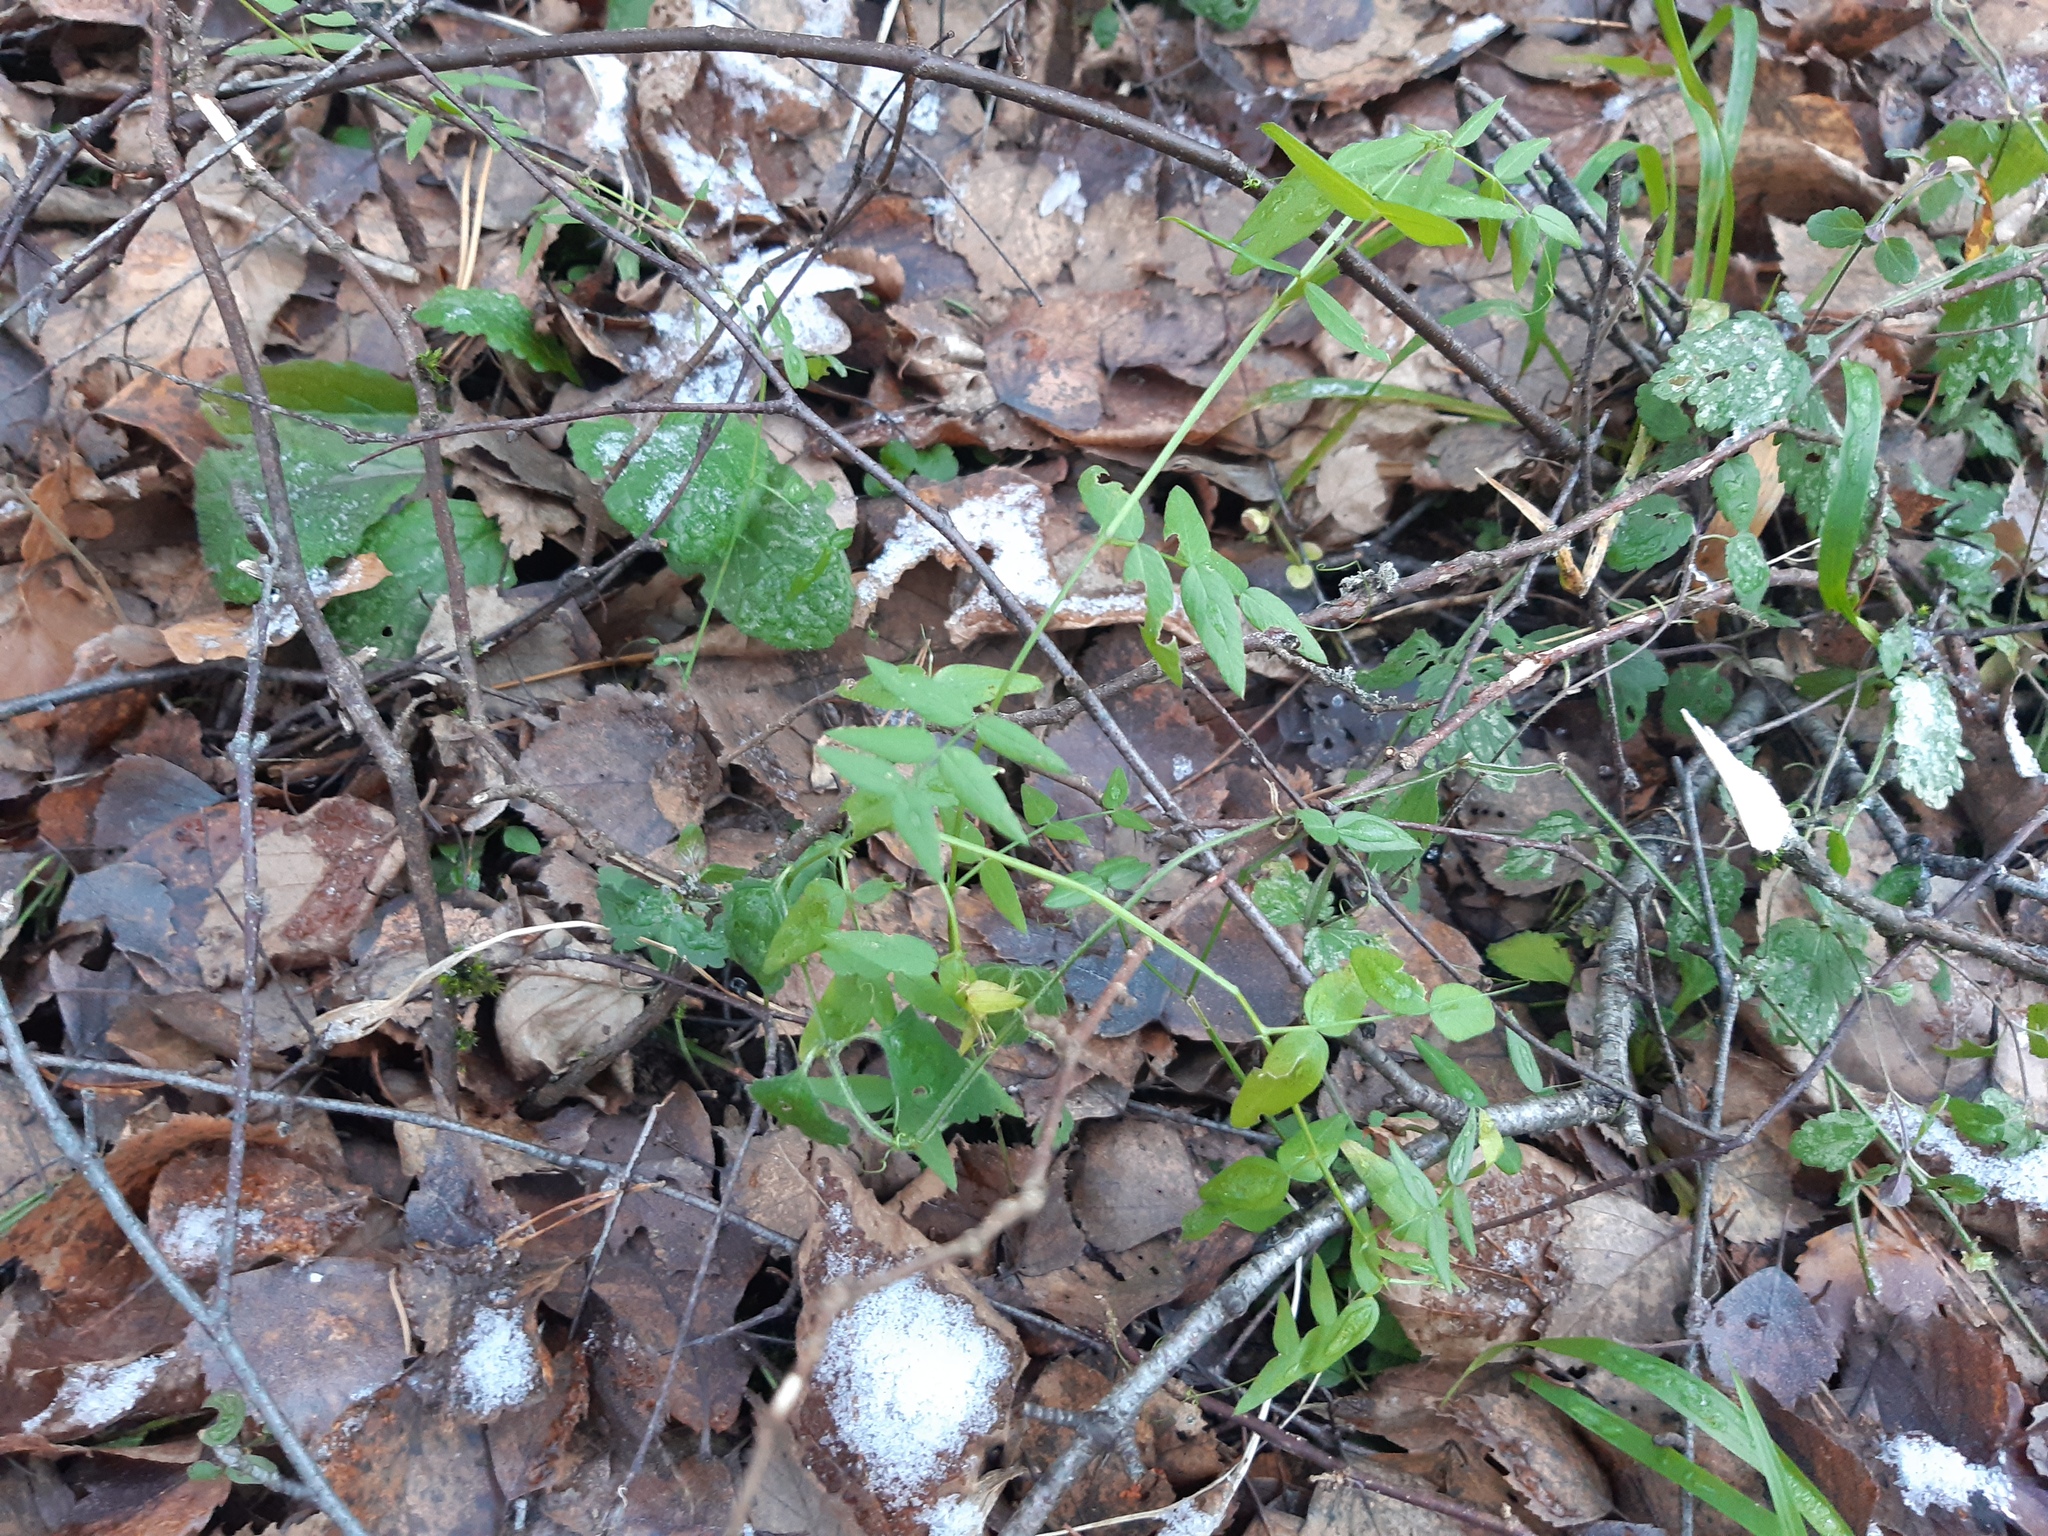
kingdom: Plantae
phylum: Tracheophyta
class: Magnoliopsida
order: Fabales
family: Fabaceae
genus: Vicia
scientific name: Vicia sepium
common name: Bush vetch
